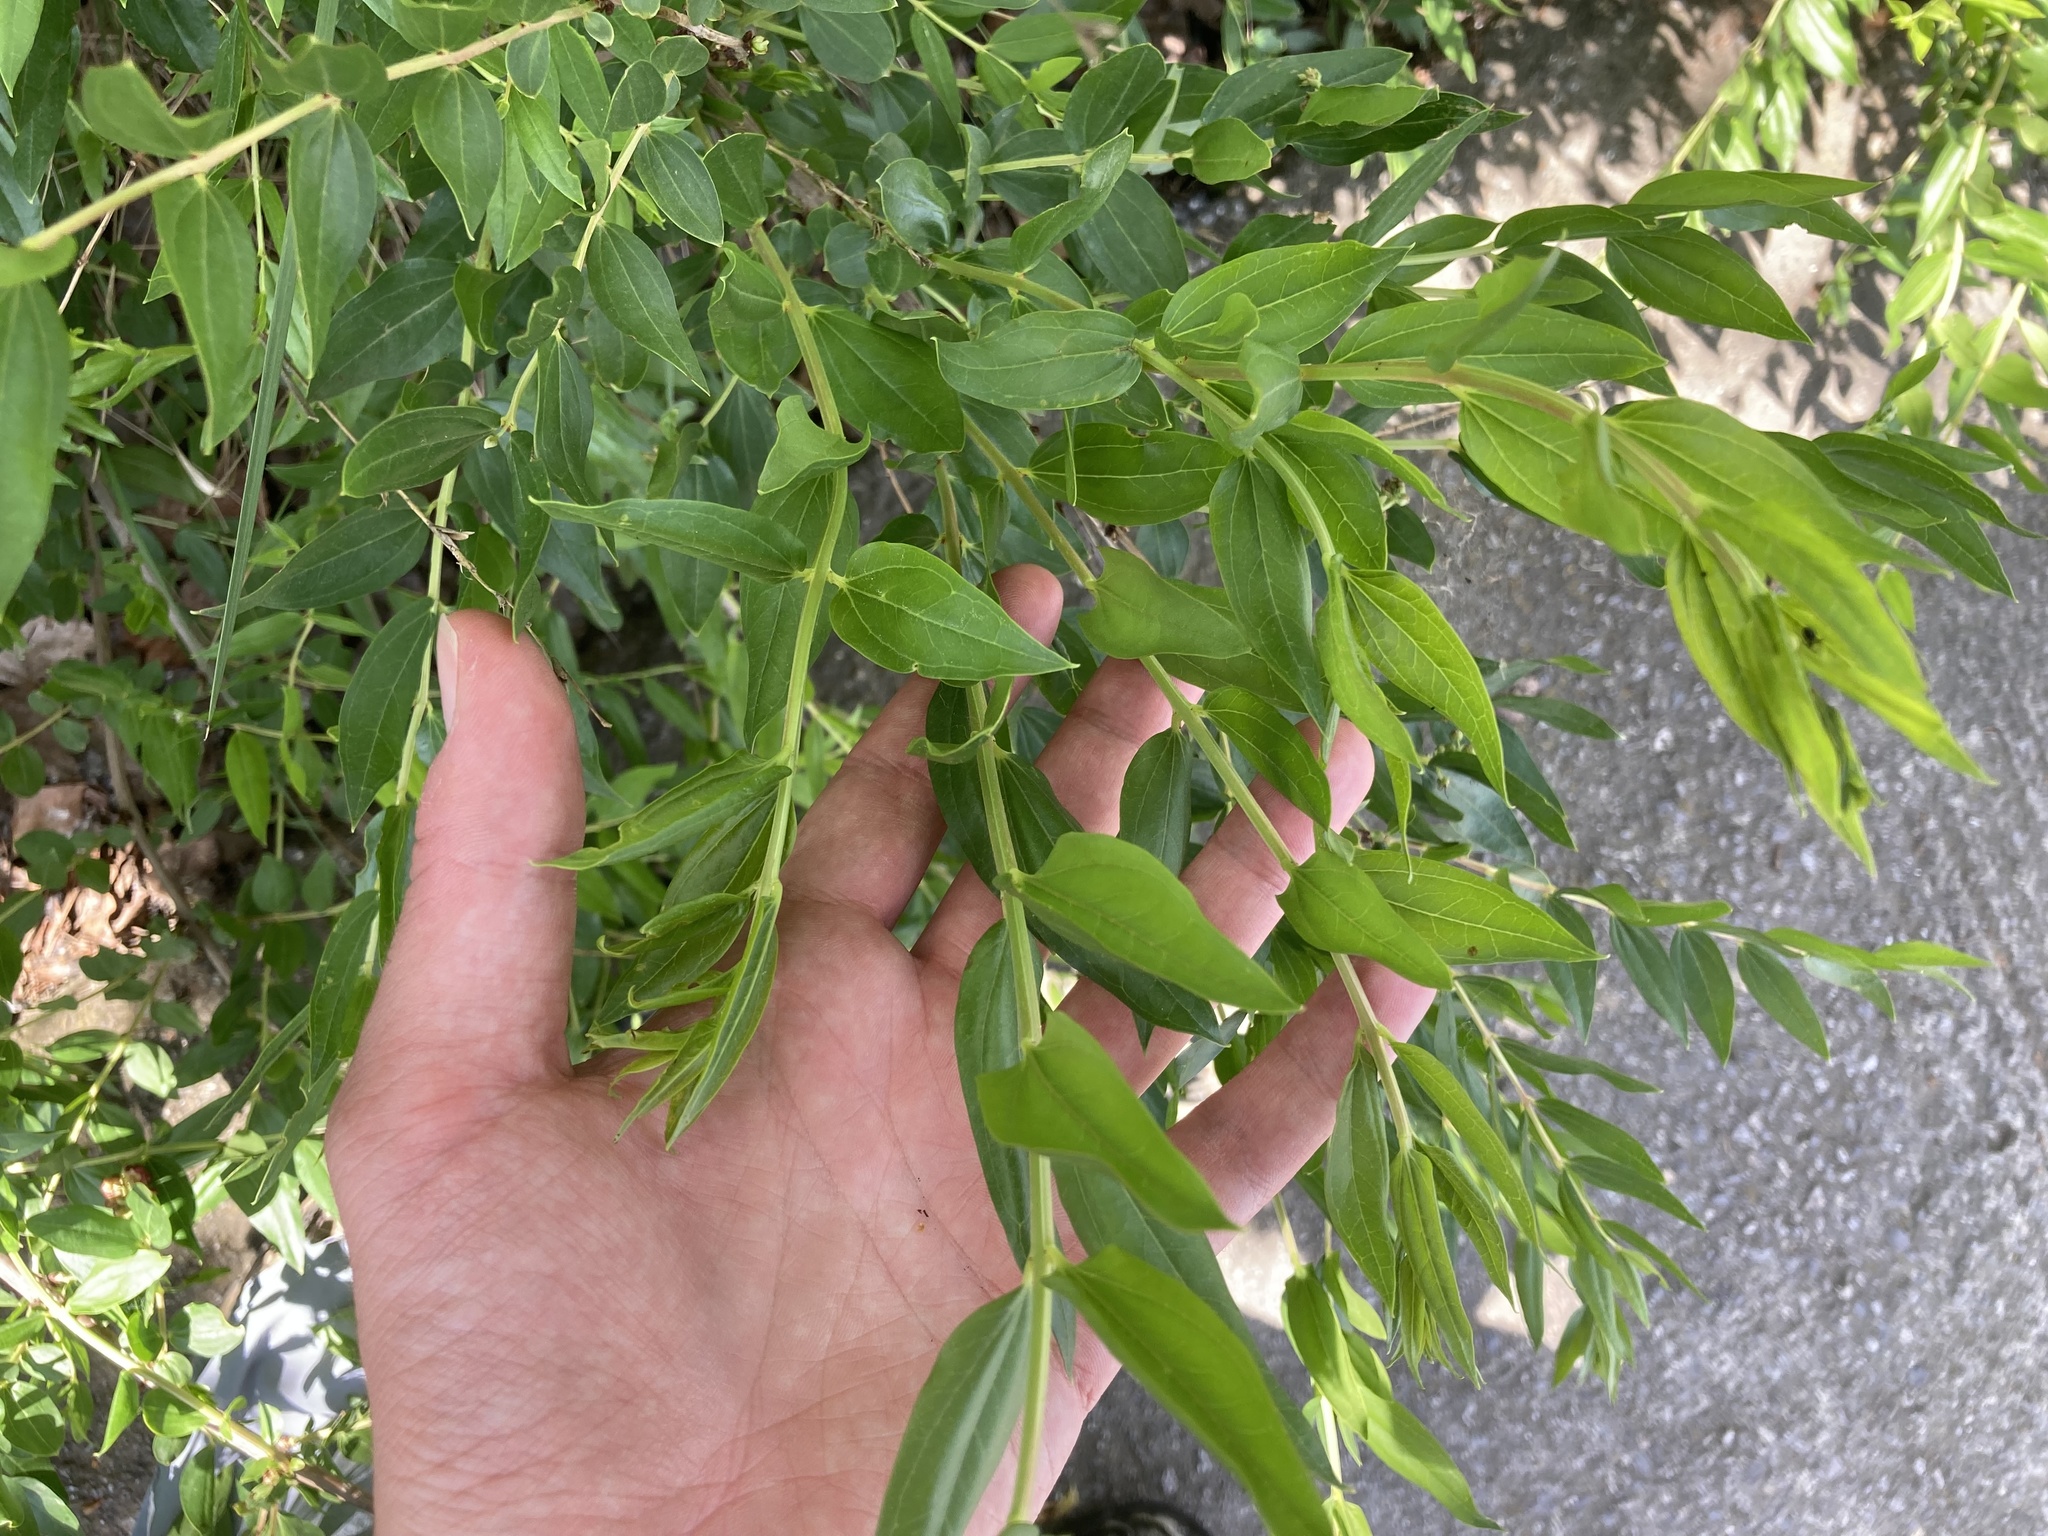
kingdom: Plantae
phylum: Tracheophyta
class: Magnoliopsida
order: Cucurbitales
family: Coriariaceae
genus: Coriaria
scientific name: Coriaria myrtifolia
